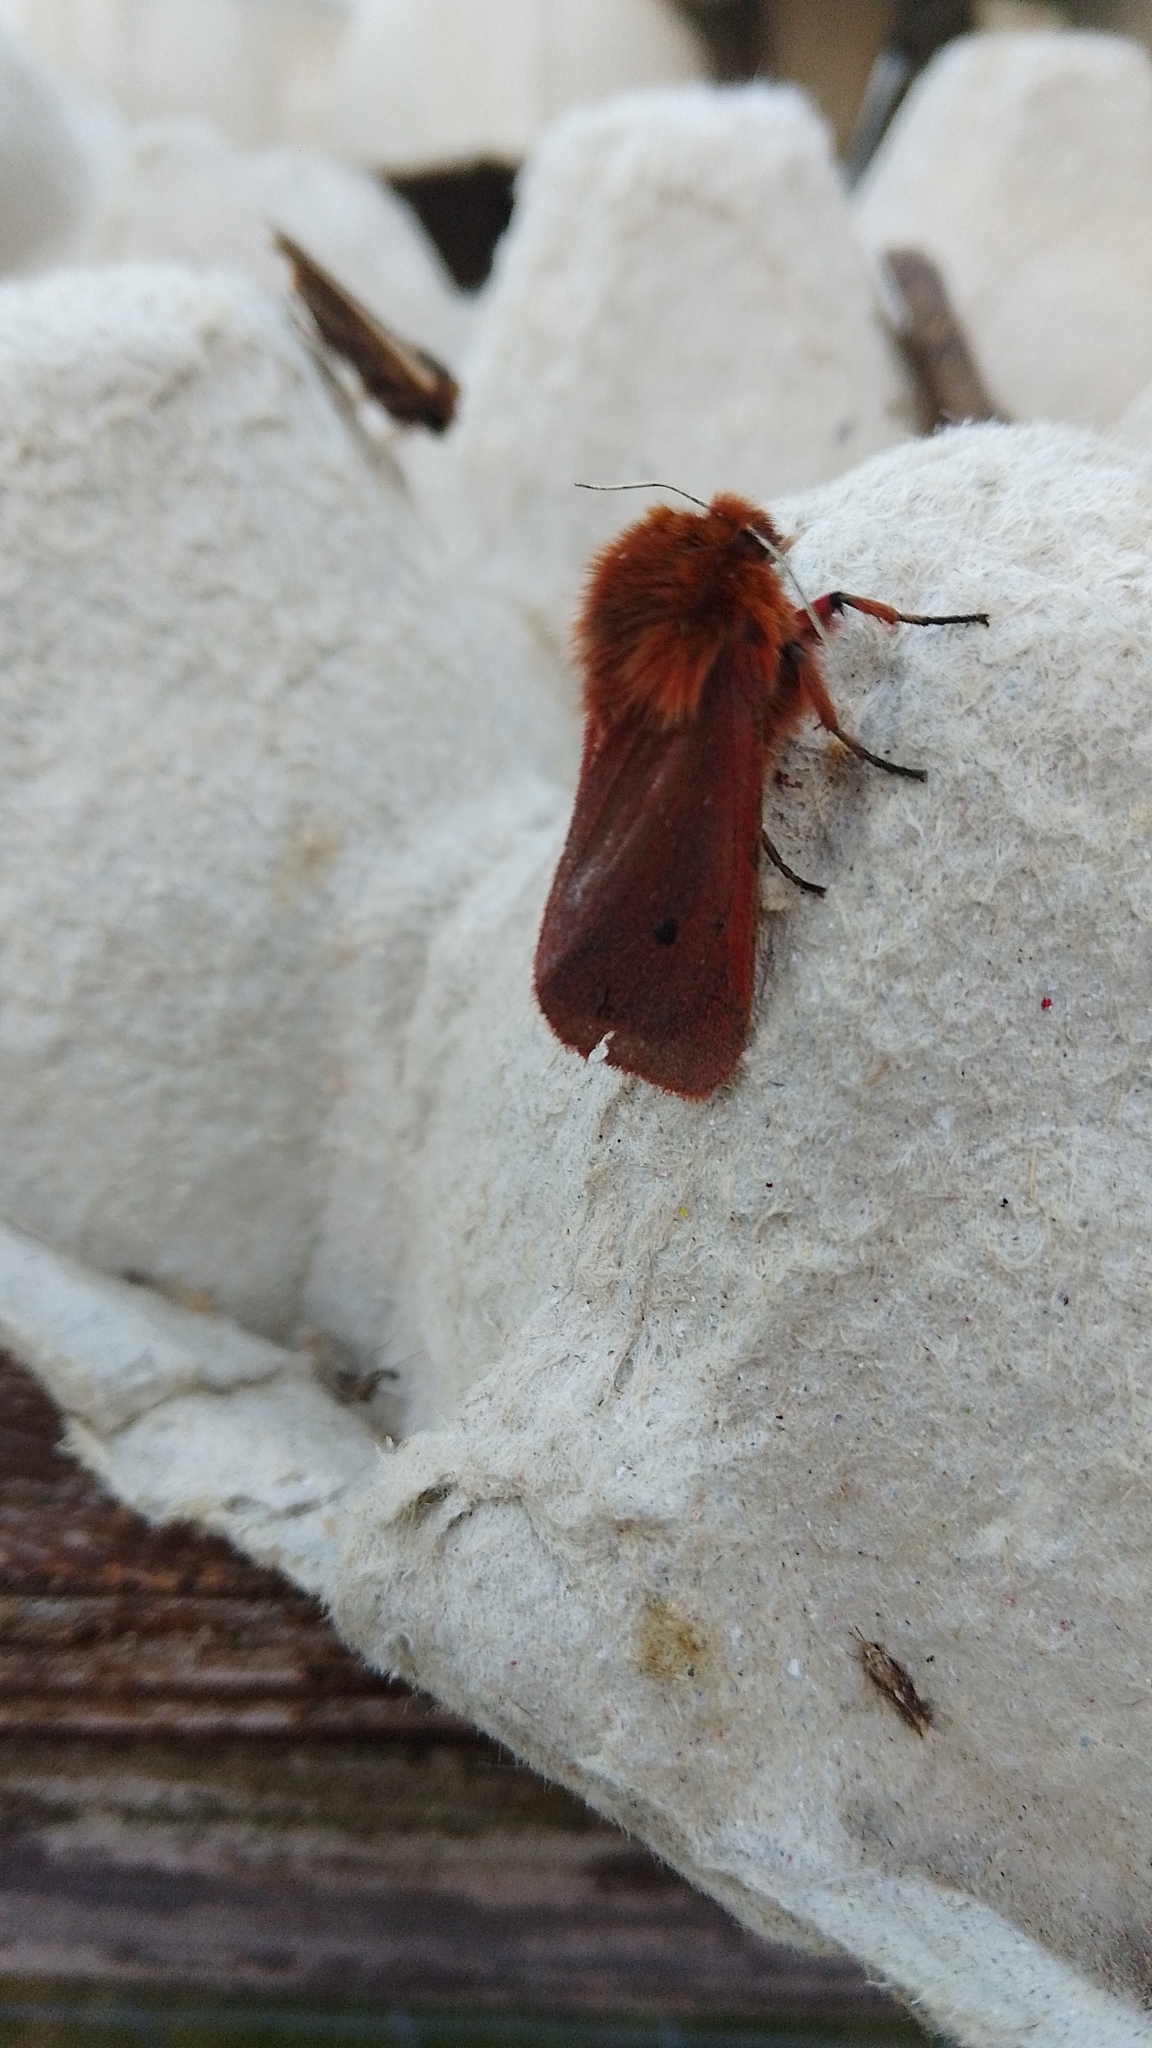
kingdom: Animalia
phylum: Arthropoda
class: Insecta
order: Lepidoptera
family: Erebidae
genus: Phragmatobia
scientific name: Phragmatobia fuliginosa
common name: Ruby tiger
